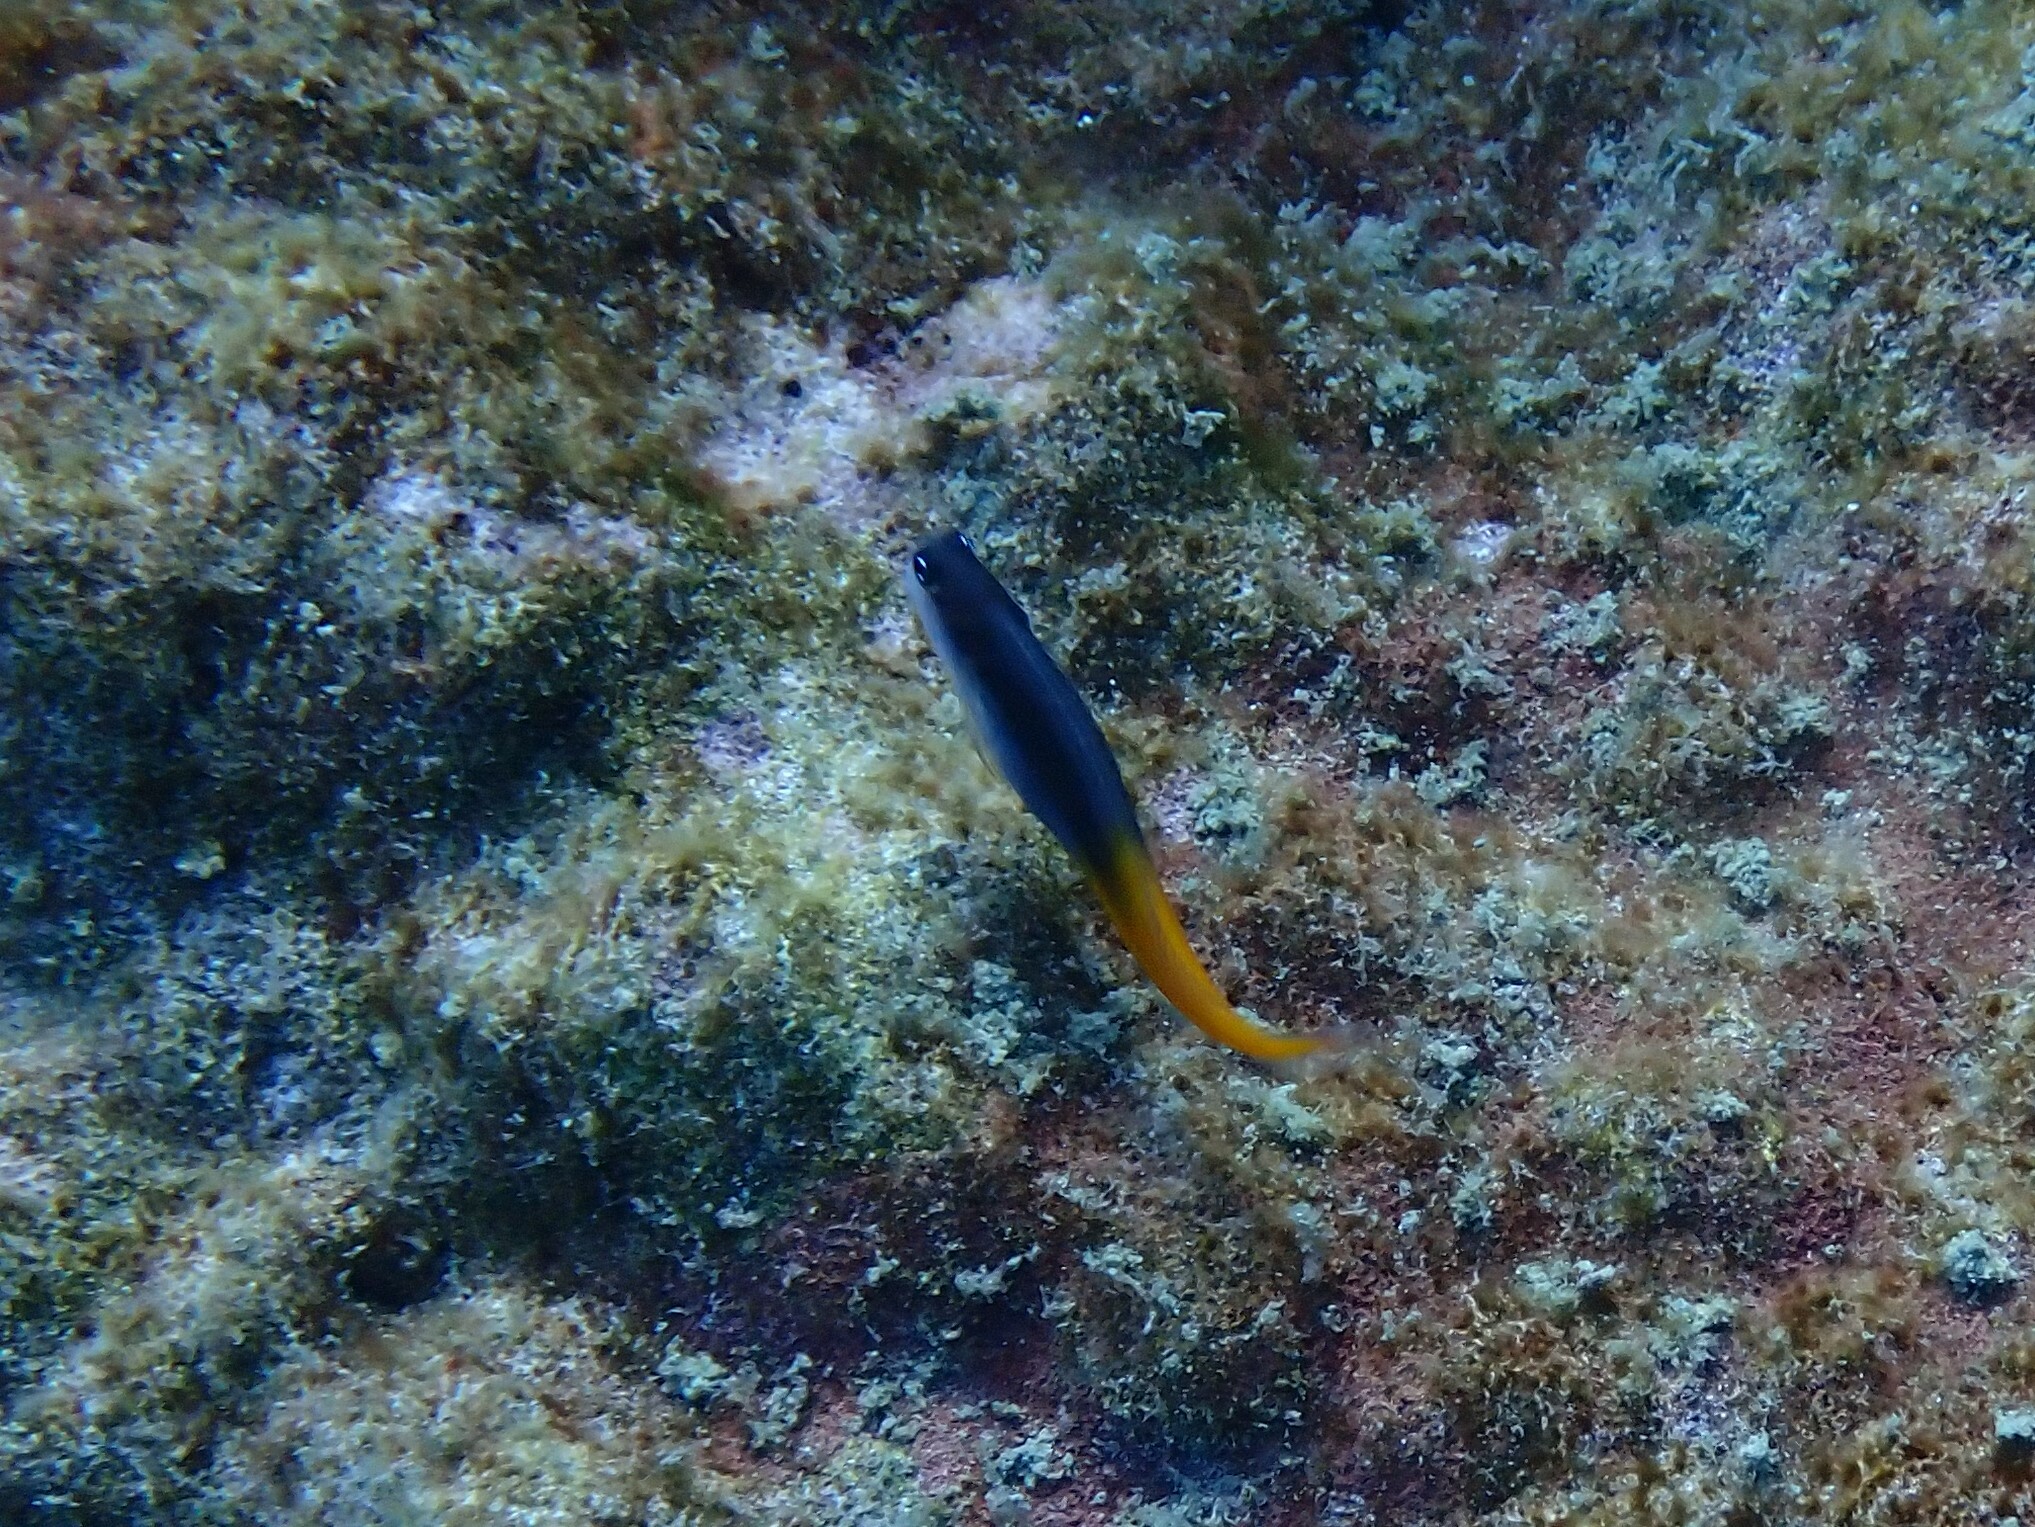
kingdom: Animalia
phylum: Chordata
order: Perciformes
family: Blenniidae
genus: Ecsenius
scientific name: Ecsenius bicolor
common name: Bicolor blenny
